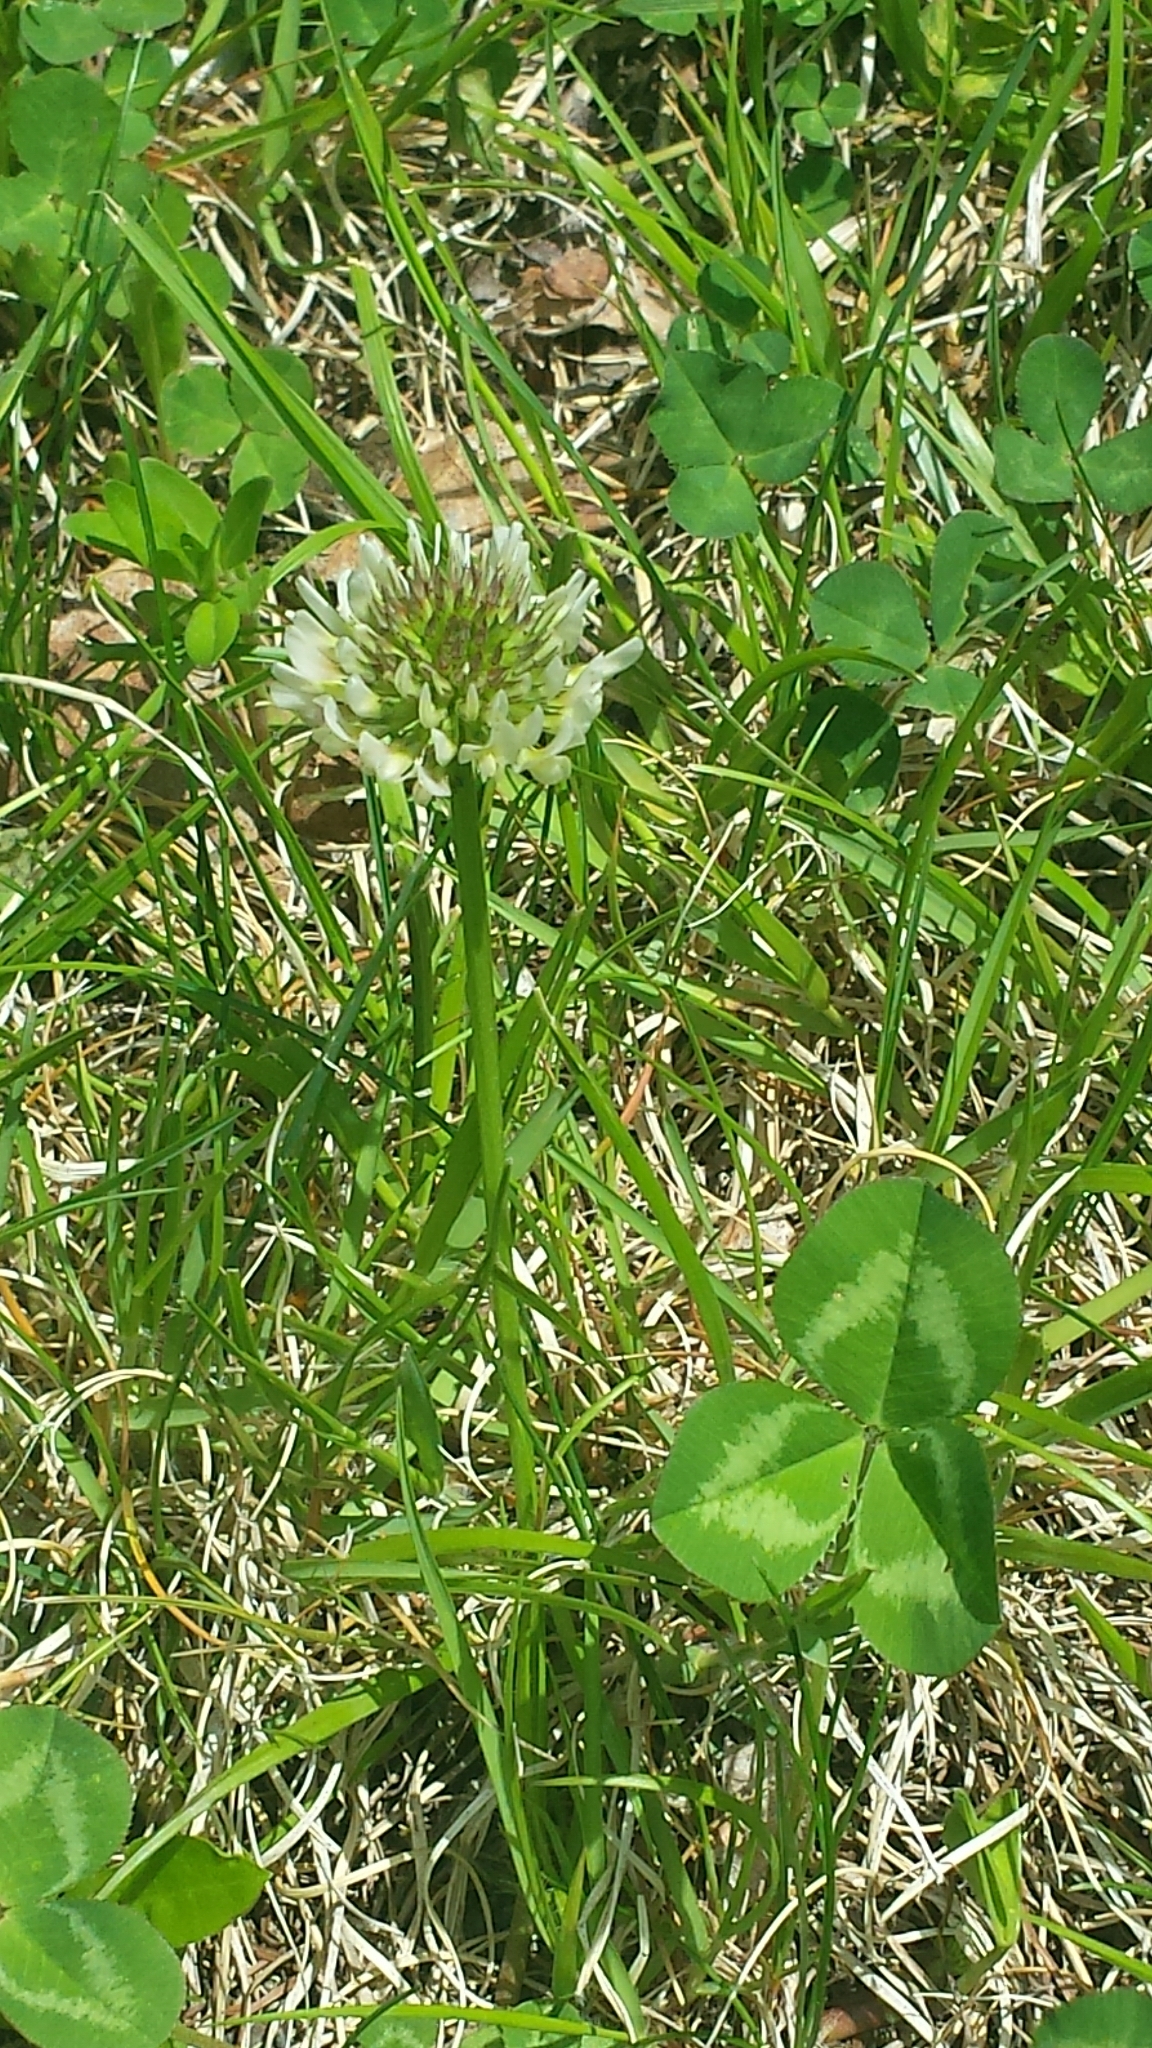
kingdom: Plantae
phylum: Tracheophyta
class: Magnoliopsida
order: Fabales
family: Fabaceae
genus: Trifolium
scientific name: Trifolium repens
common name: White clover
